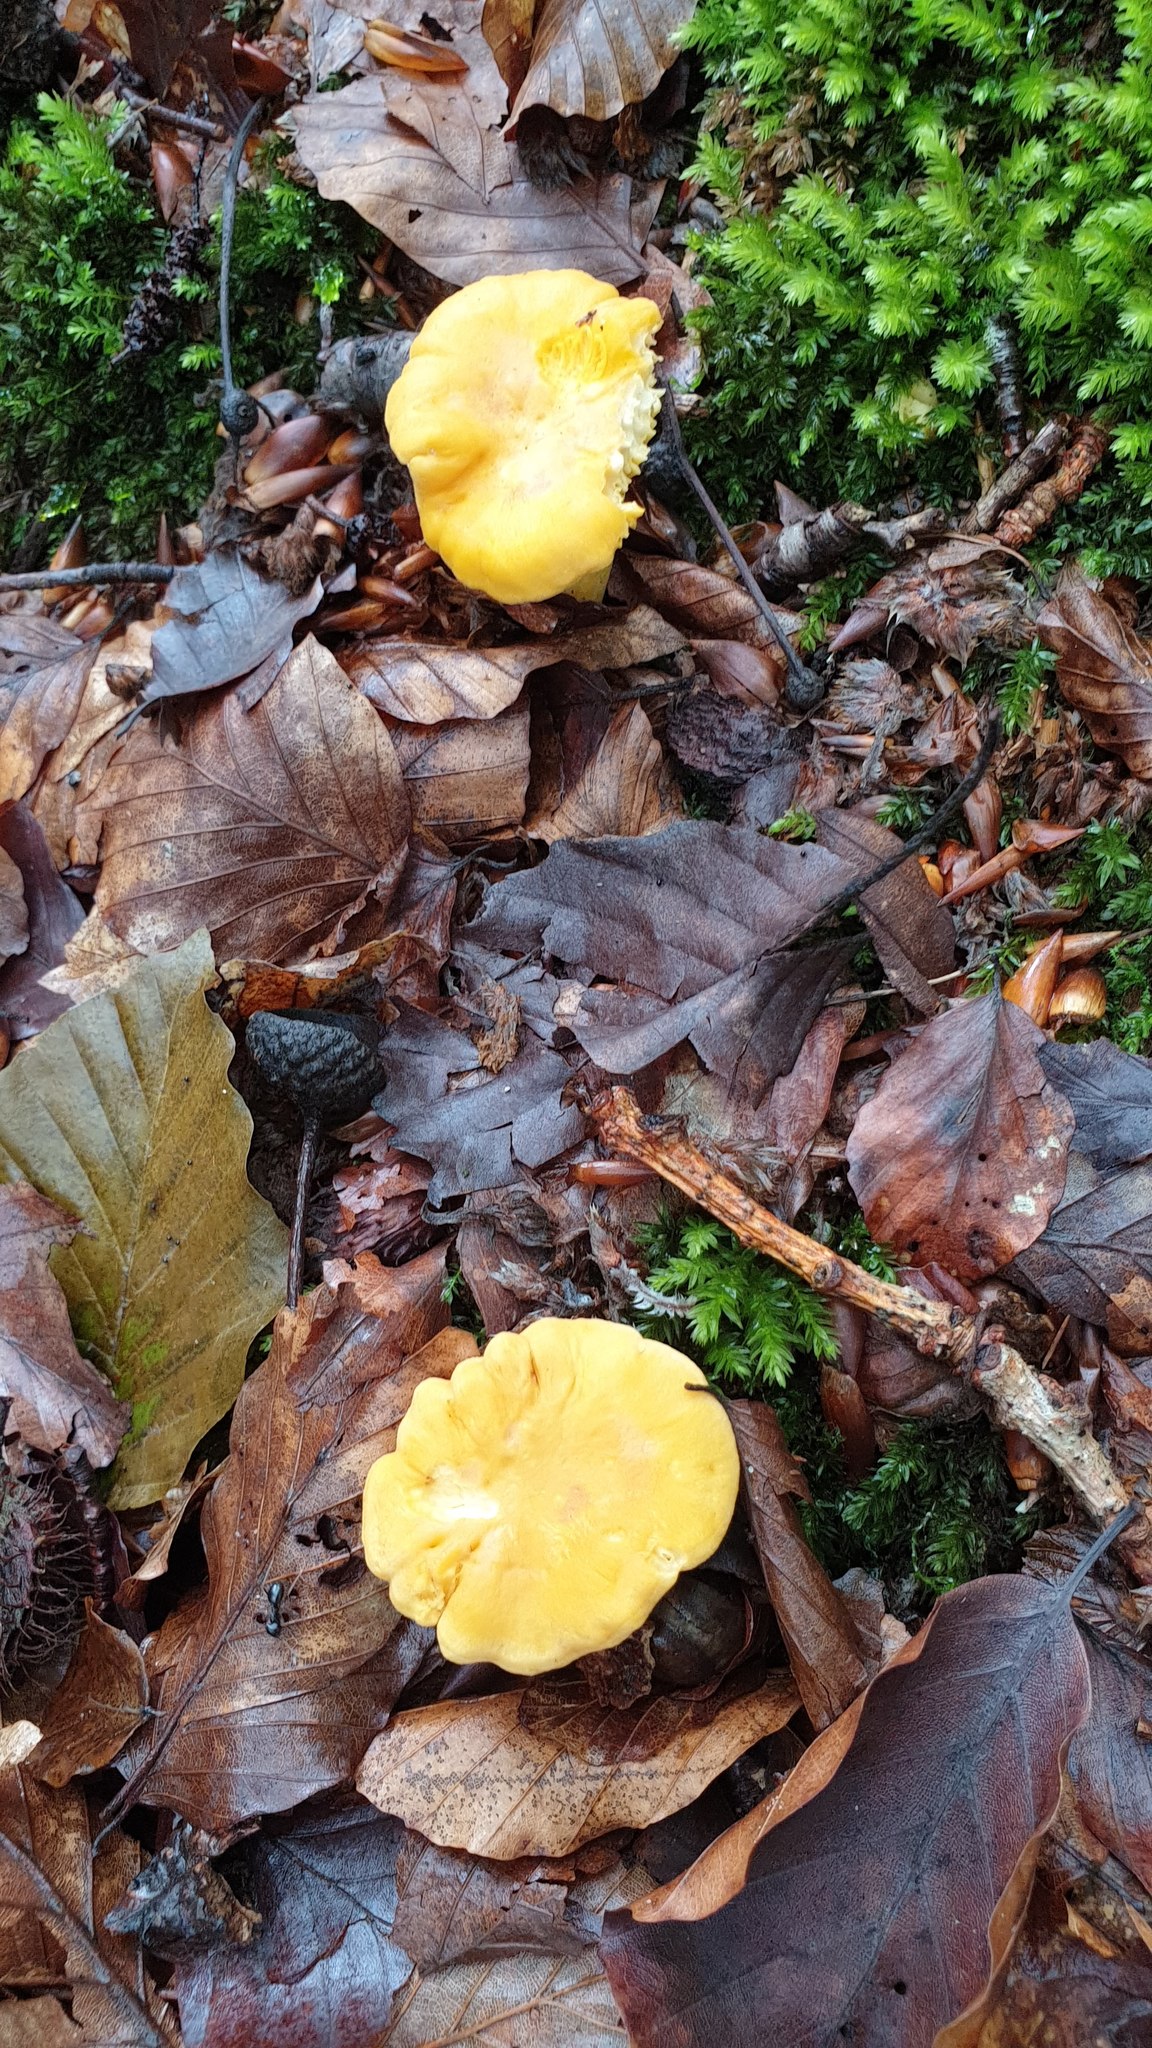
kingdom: Fungi
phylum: Basidiomycota
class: Agaricomycetes
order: Cantharellales
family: Hydnaceae
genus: Cantharellus
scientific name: Cantharellus cibarius
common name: Chanterelle
